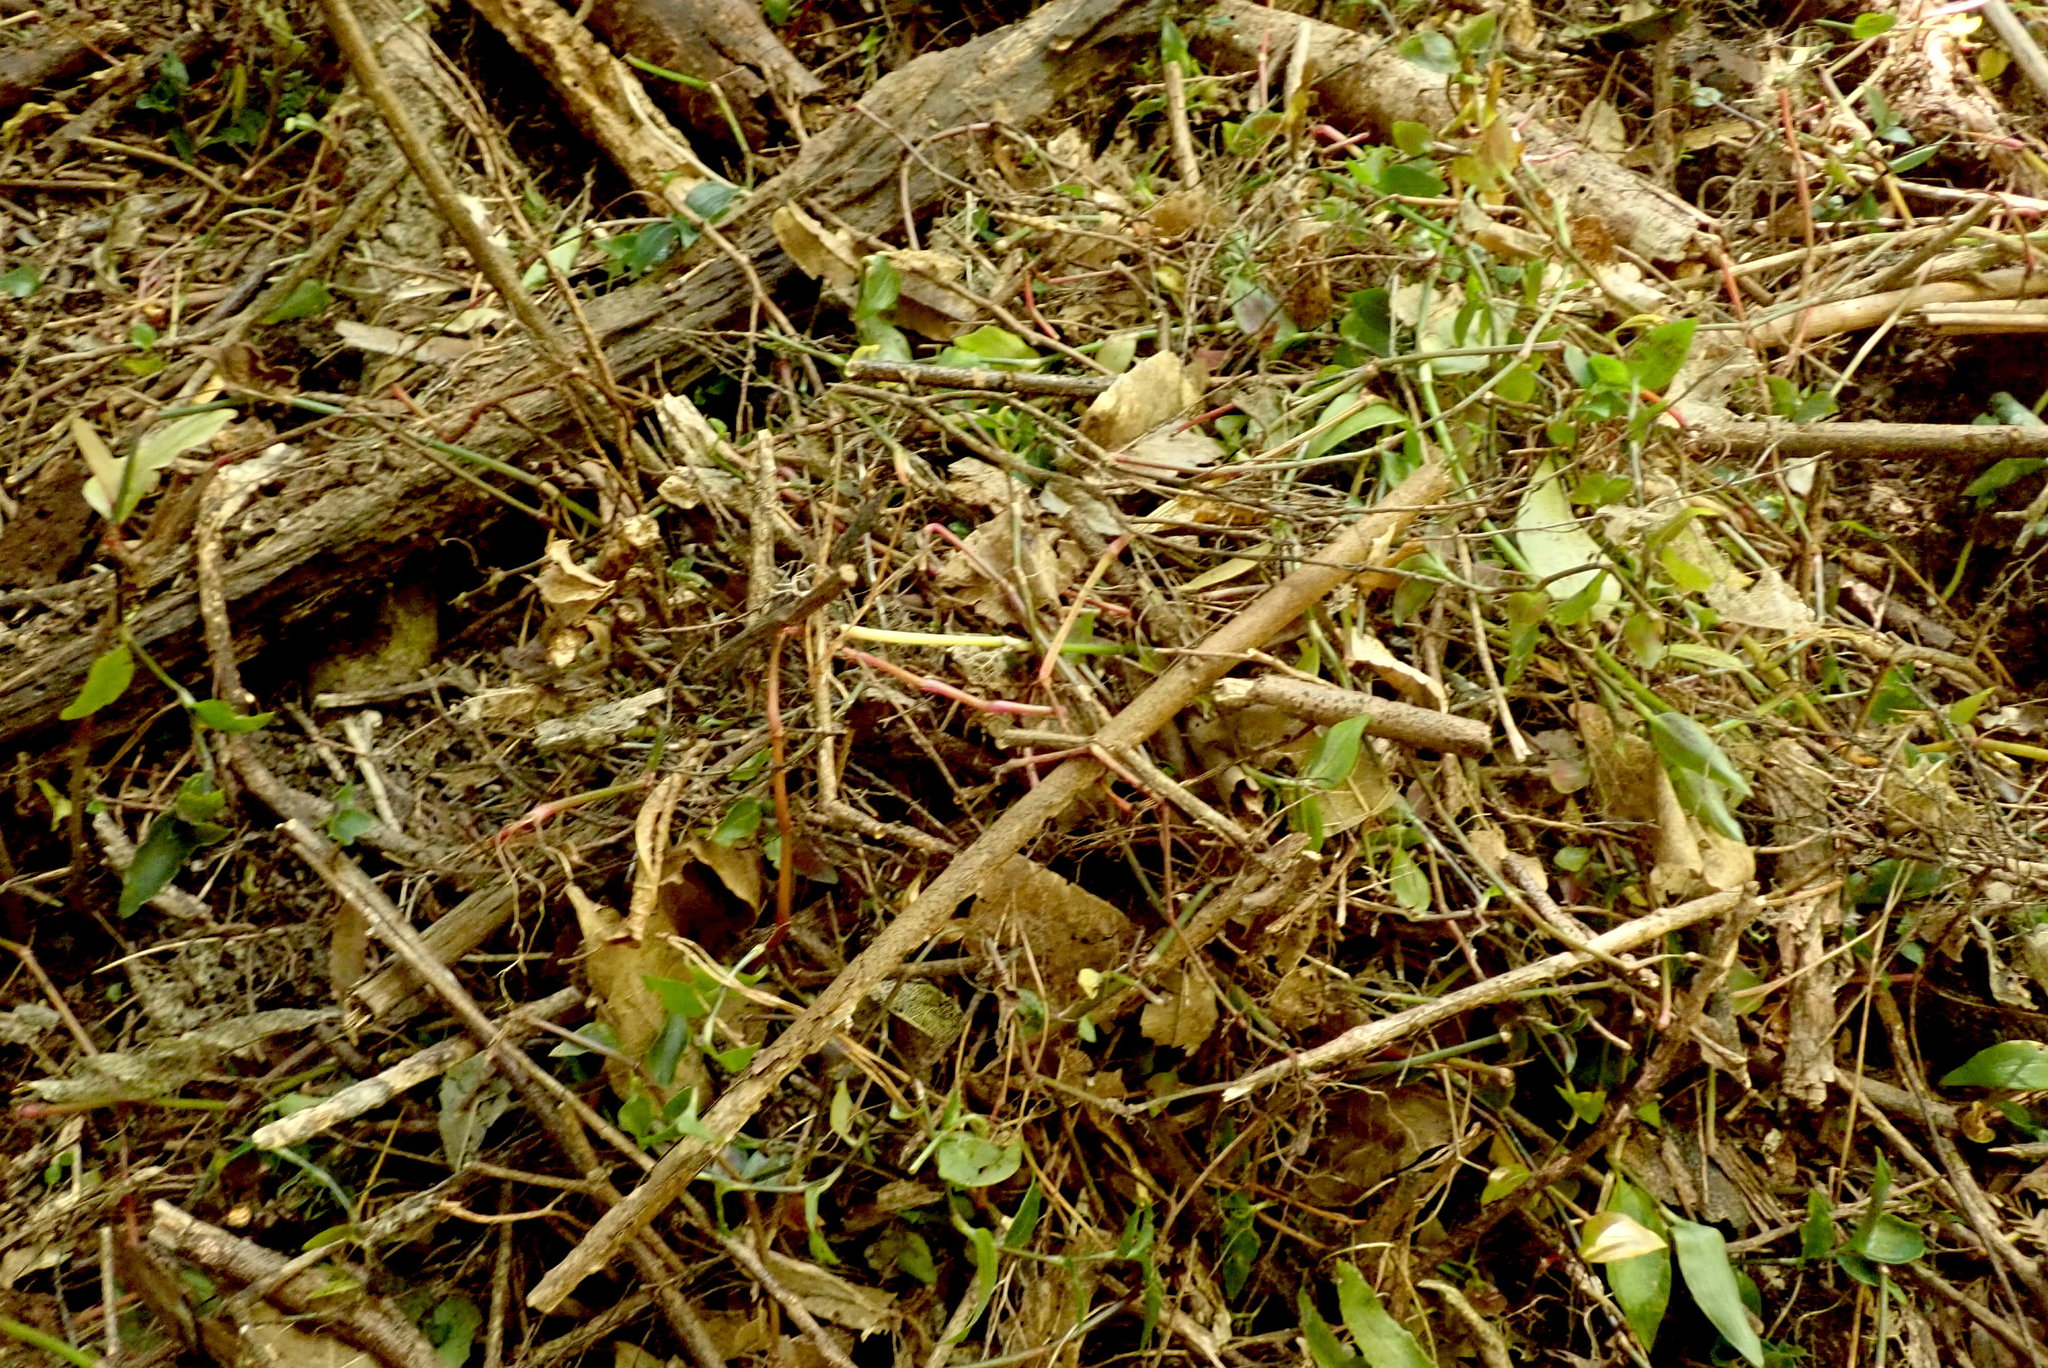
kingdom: Plantae
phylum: Tracheophyta
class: Liliopsida
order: Commelinales
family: Commelinaceae
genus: Tradescantia
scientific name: Tradescantia fluminensis
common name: Wandering-jew
